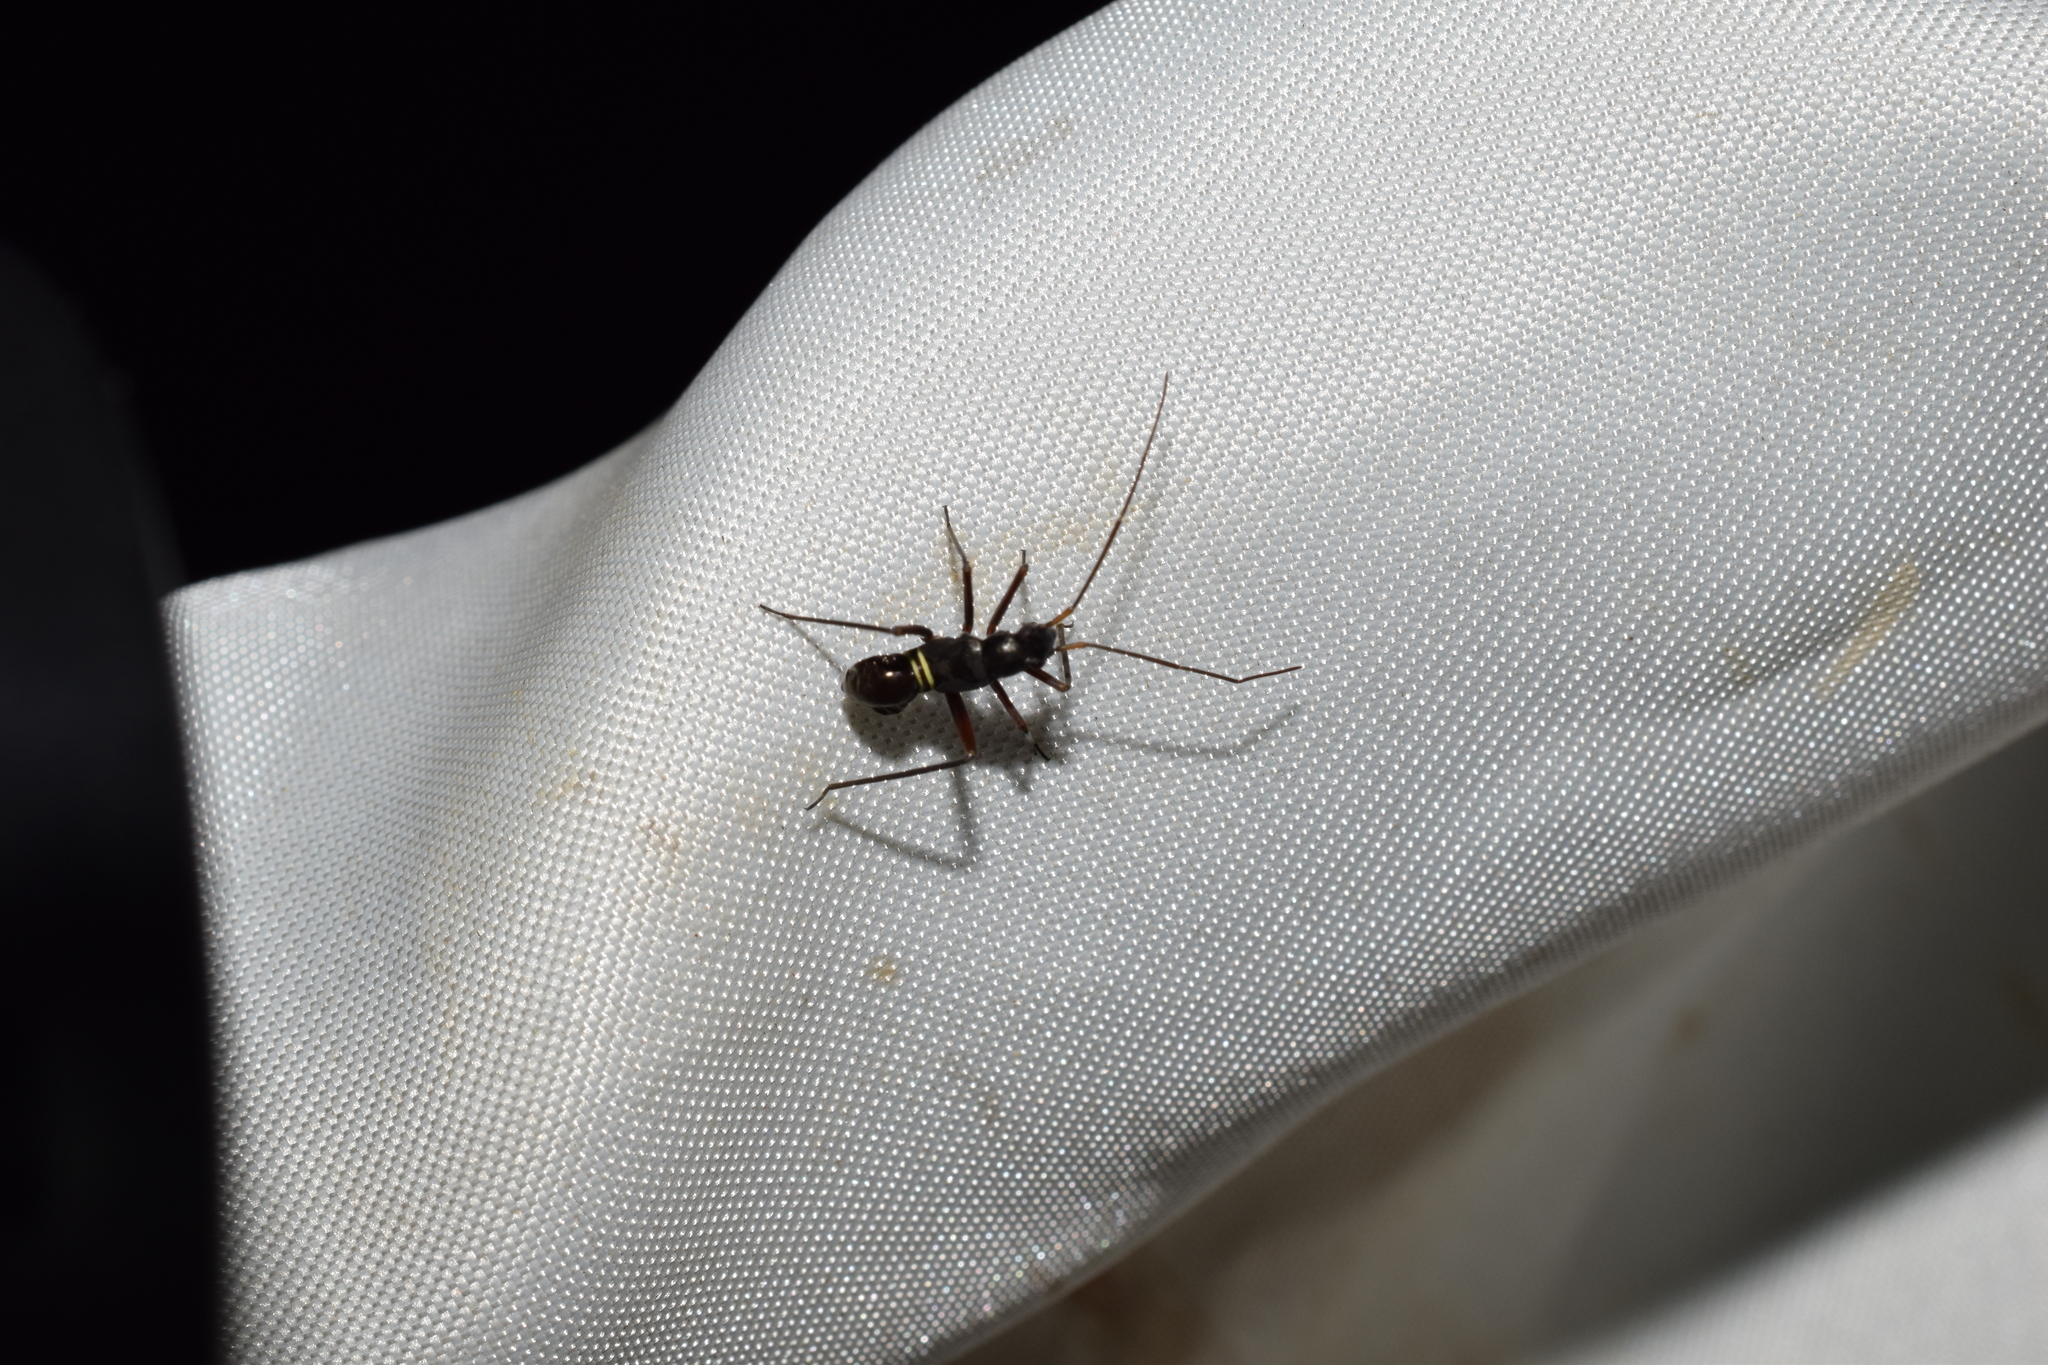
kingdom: Animalia
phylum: Arthropoda
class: Insecta
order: Hemiptera
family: Miridae
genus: Gigantomiris
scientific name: Gigantomiris jupiter
